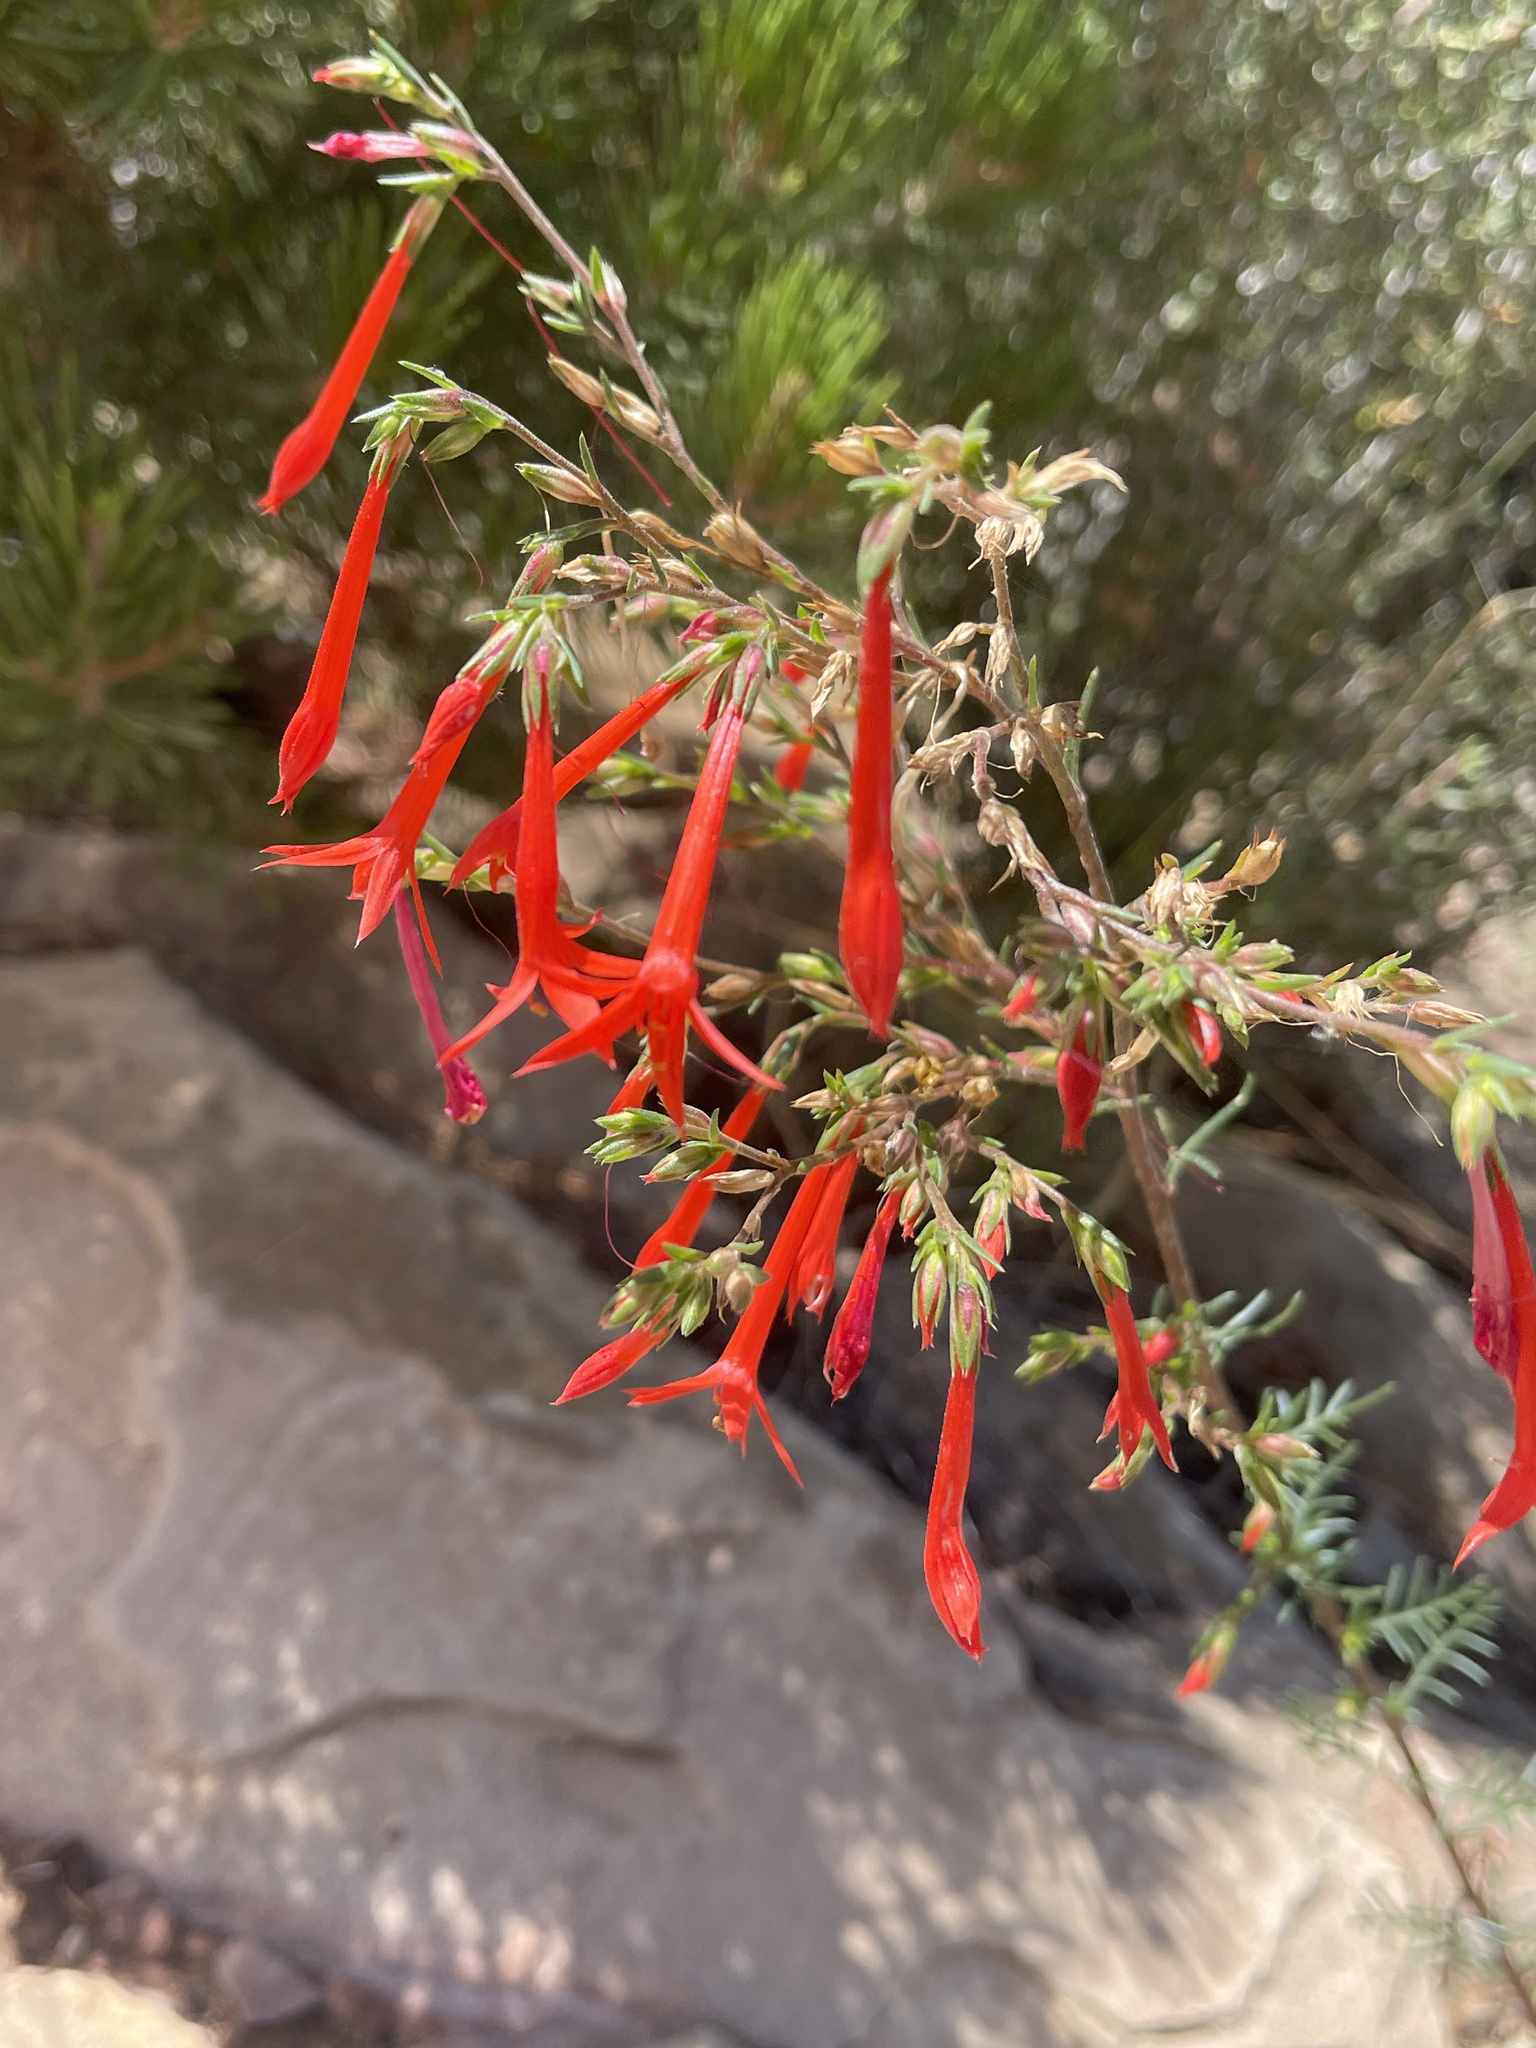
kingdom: Plantae
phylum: Tracheophyta
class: Magnoliopsida
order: Ericales
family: Polemoniaceae
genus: Ipomopsis
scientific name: Ipomopsis aggregata
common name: Scarlet gilia
